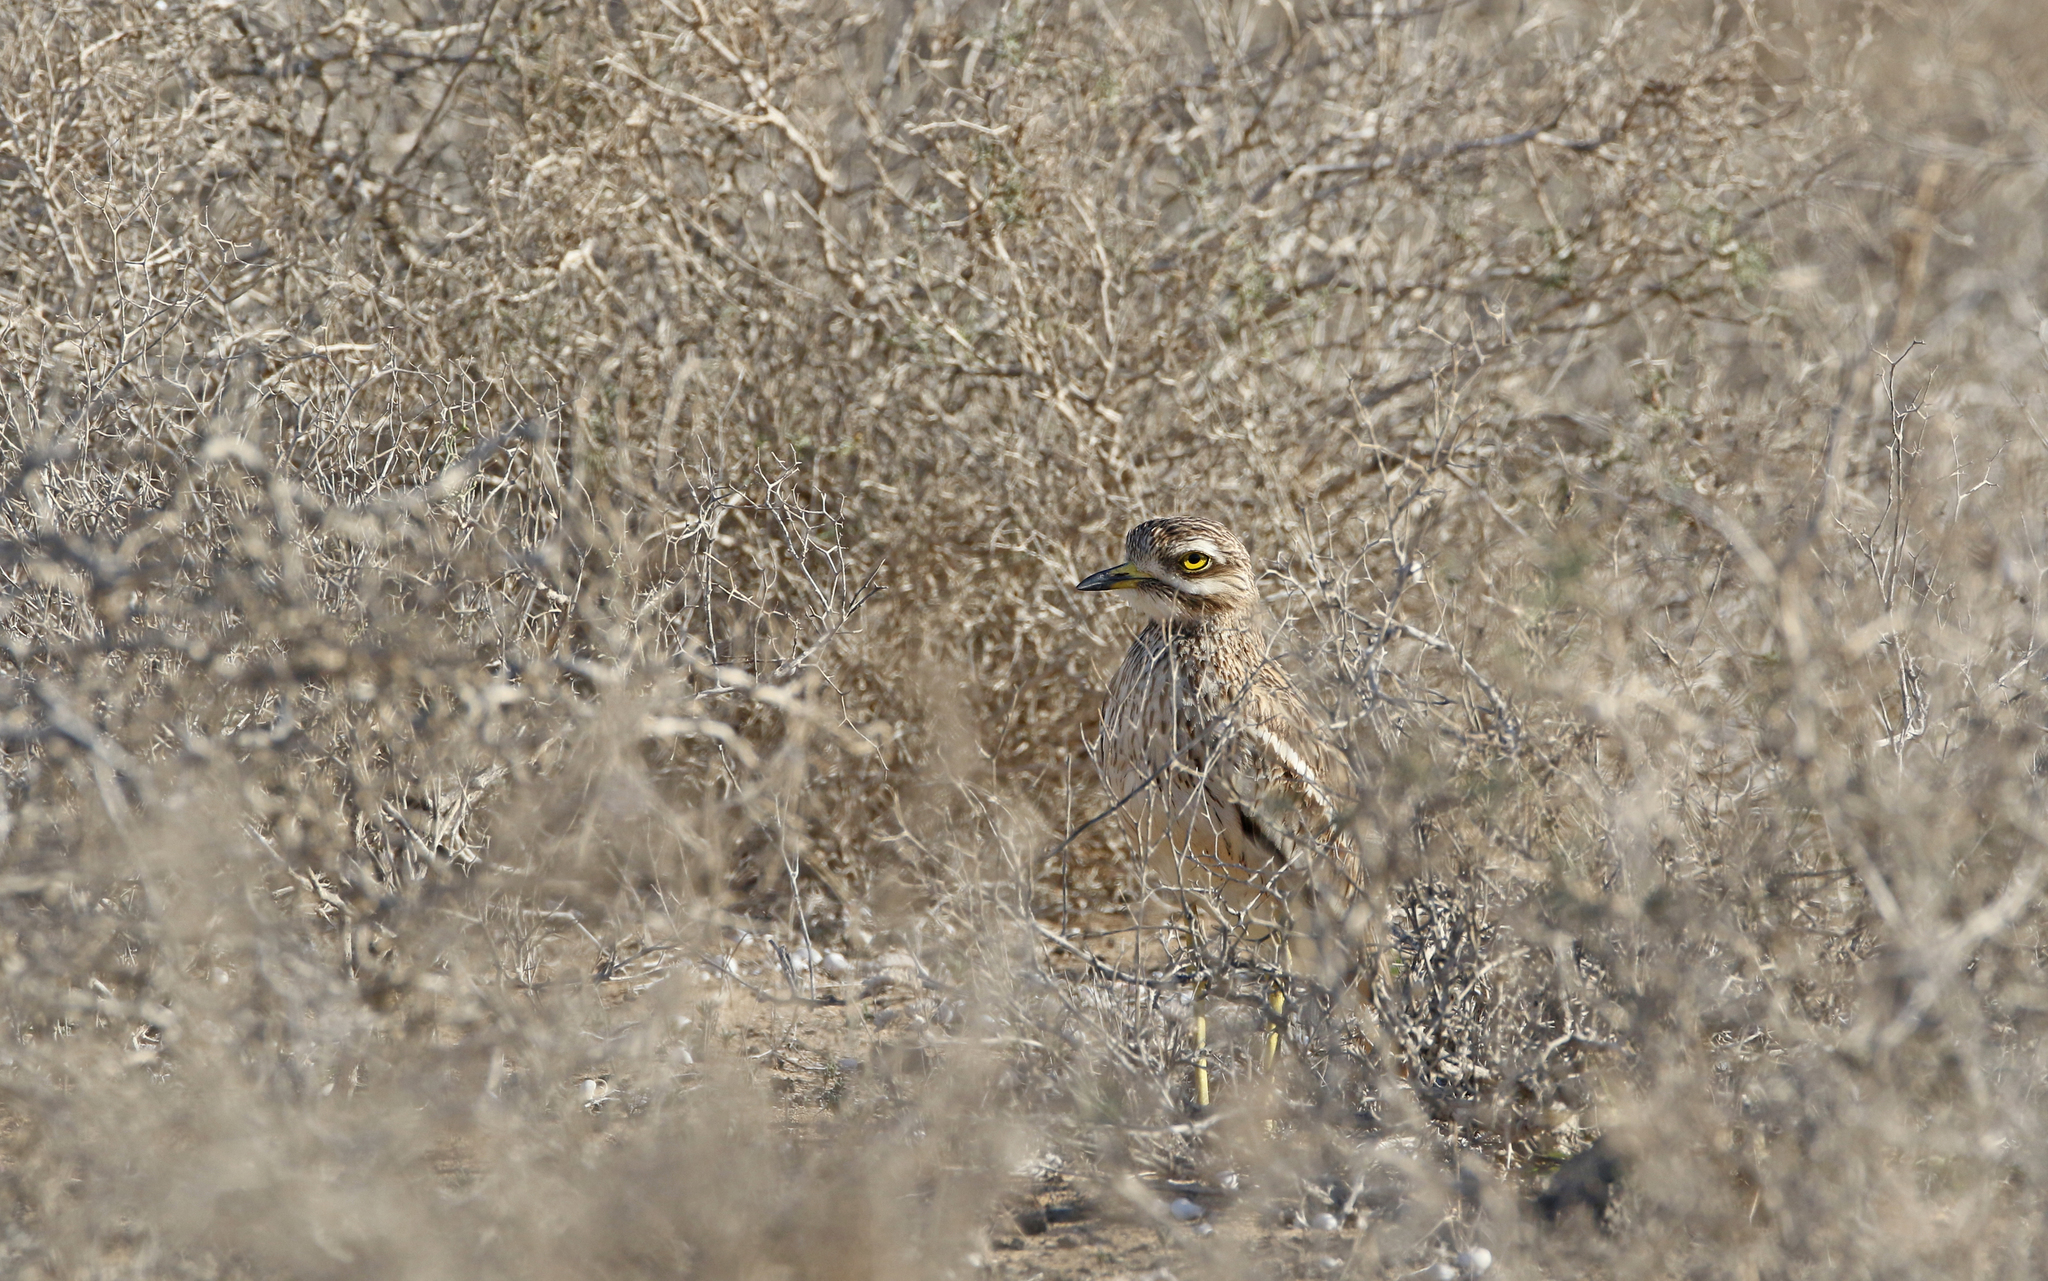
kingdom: Animalia
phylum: Chordata
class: Aves
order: Charadriiformes
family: Burhinidae
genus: Burhinus
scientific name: Burhinus oedicnemus
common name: Eurasian stone-curlew
